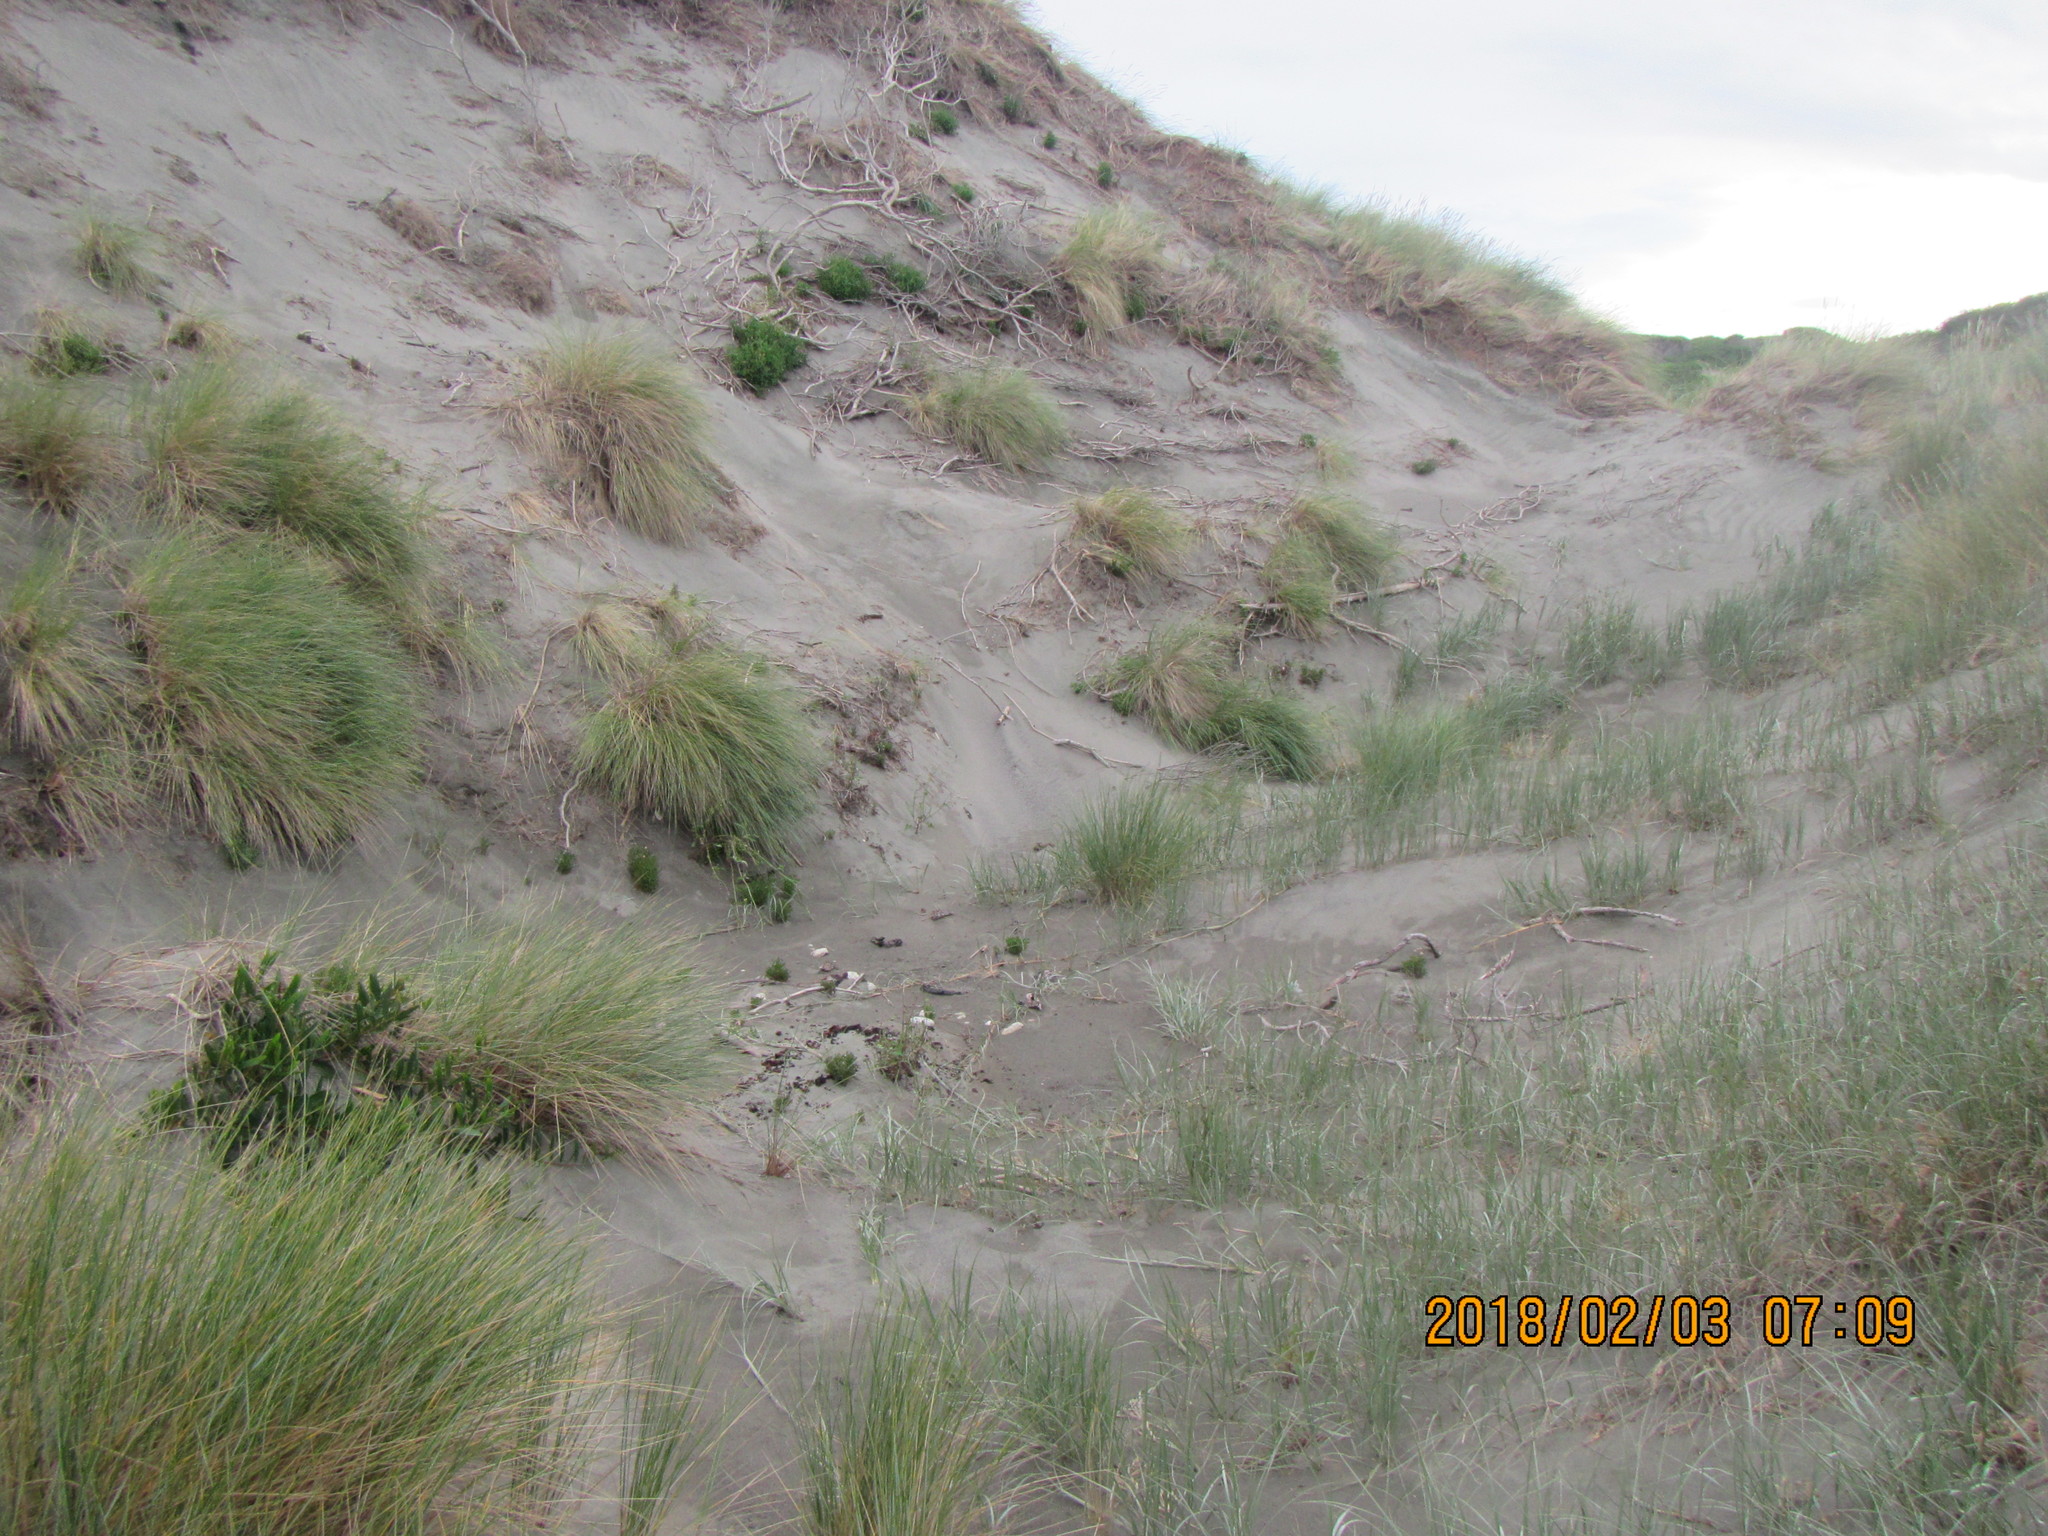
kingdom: Plantae
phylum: Tracheophyta
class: Magnoliopsida
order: Asterales
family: Asteraceae
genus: Senecio
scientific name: Senecio elegans
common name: Purple groundsel
